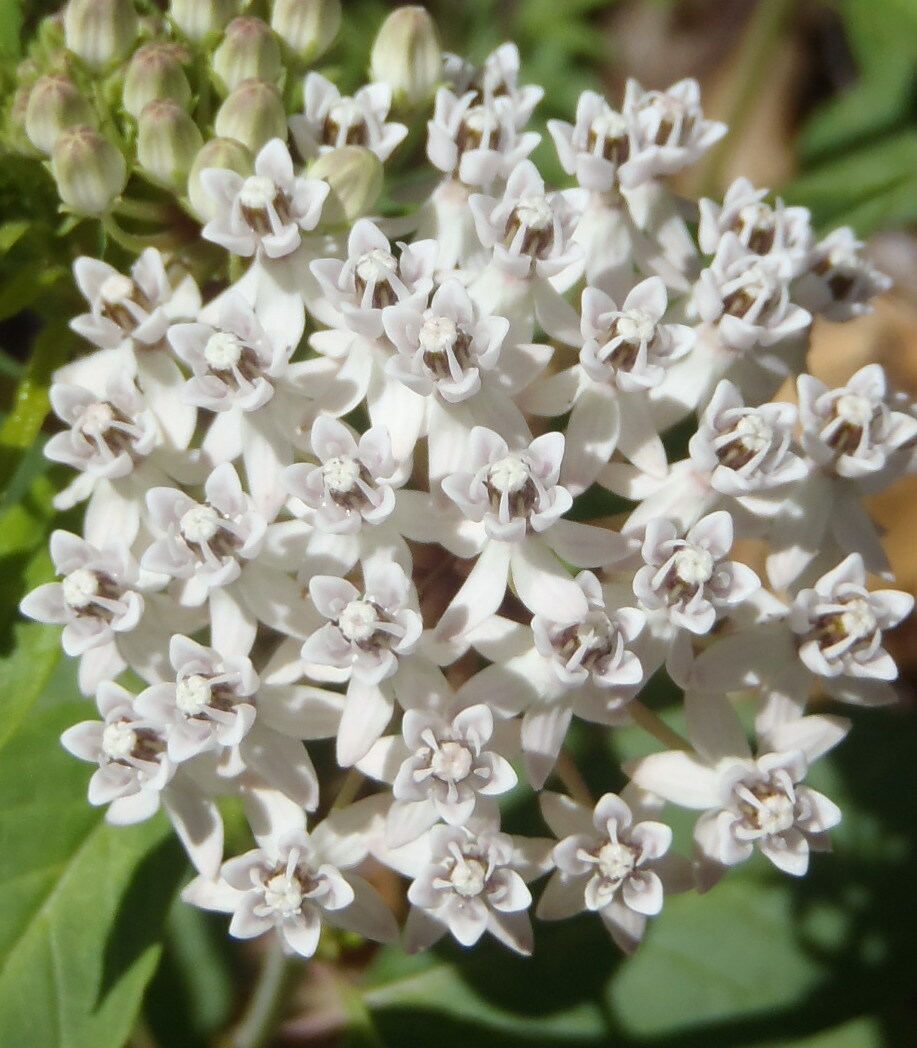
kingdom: Plantae
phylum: Tracheophyta
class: Magnoliopsida
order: Gentianales
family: Apocynaceae
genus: Asclepias
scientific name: Asclepias texana
